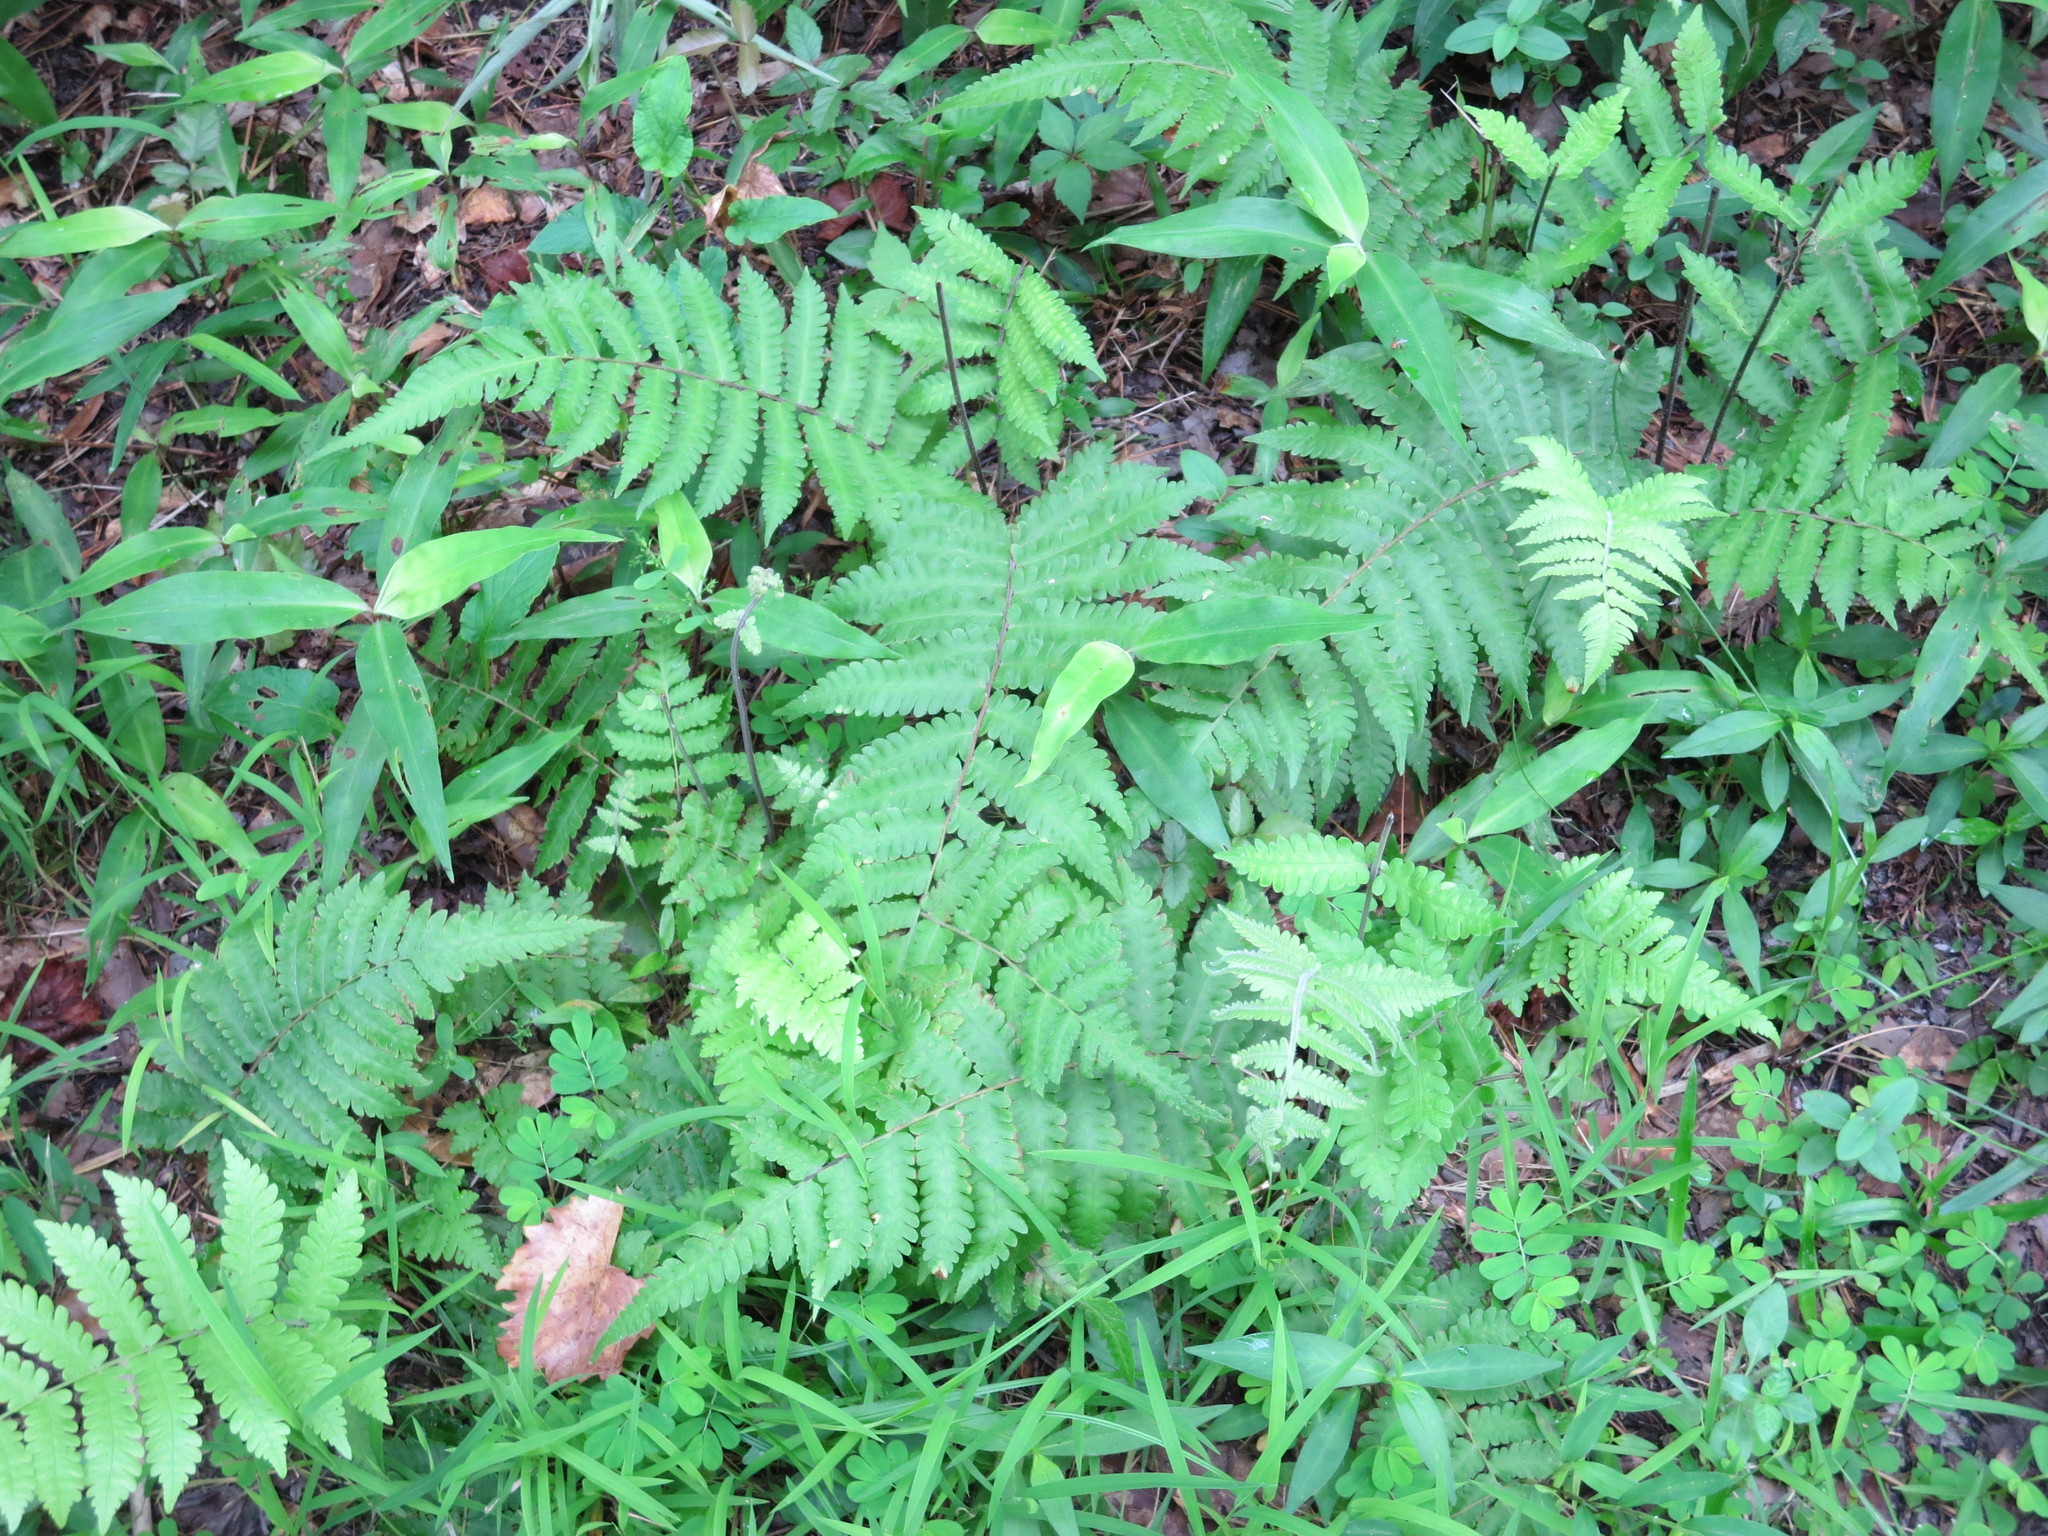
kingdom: Plantae
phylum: Tracheophyta
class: Polypodiopsida
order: Polypodiales
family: Thelypteridaceae
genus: Christella
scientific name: Christella parasitica
